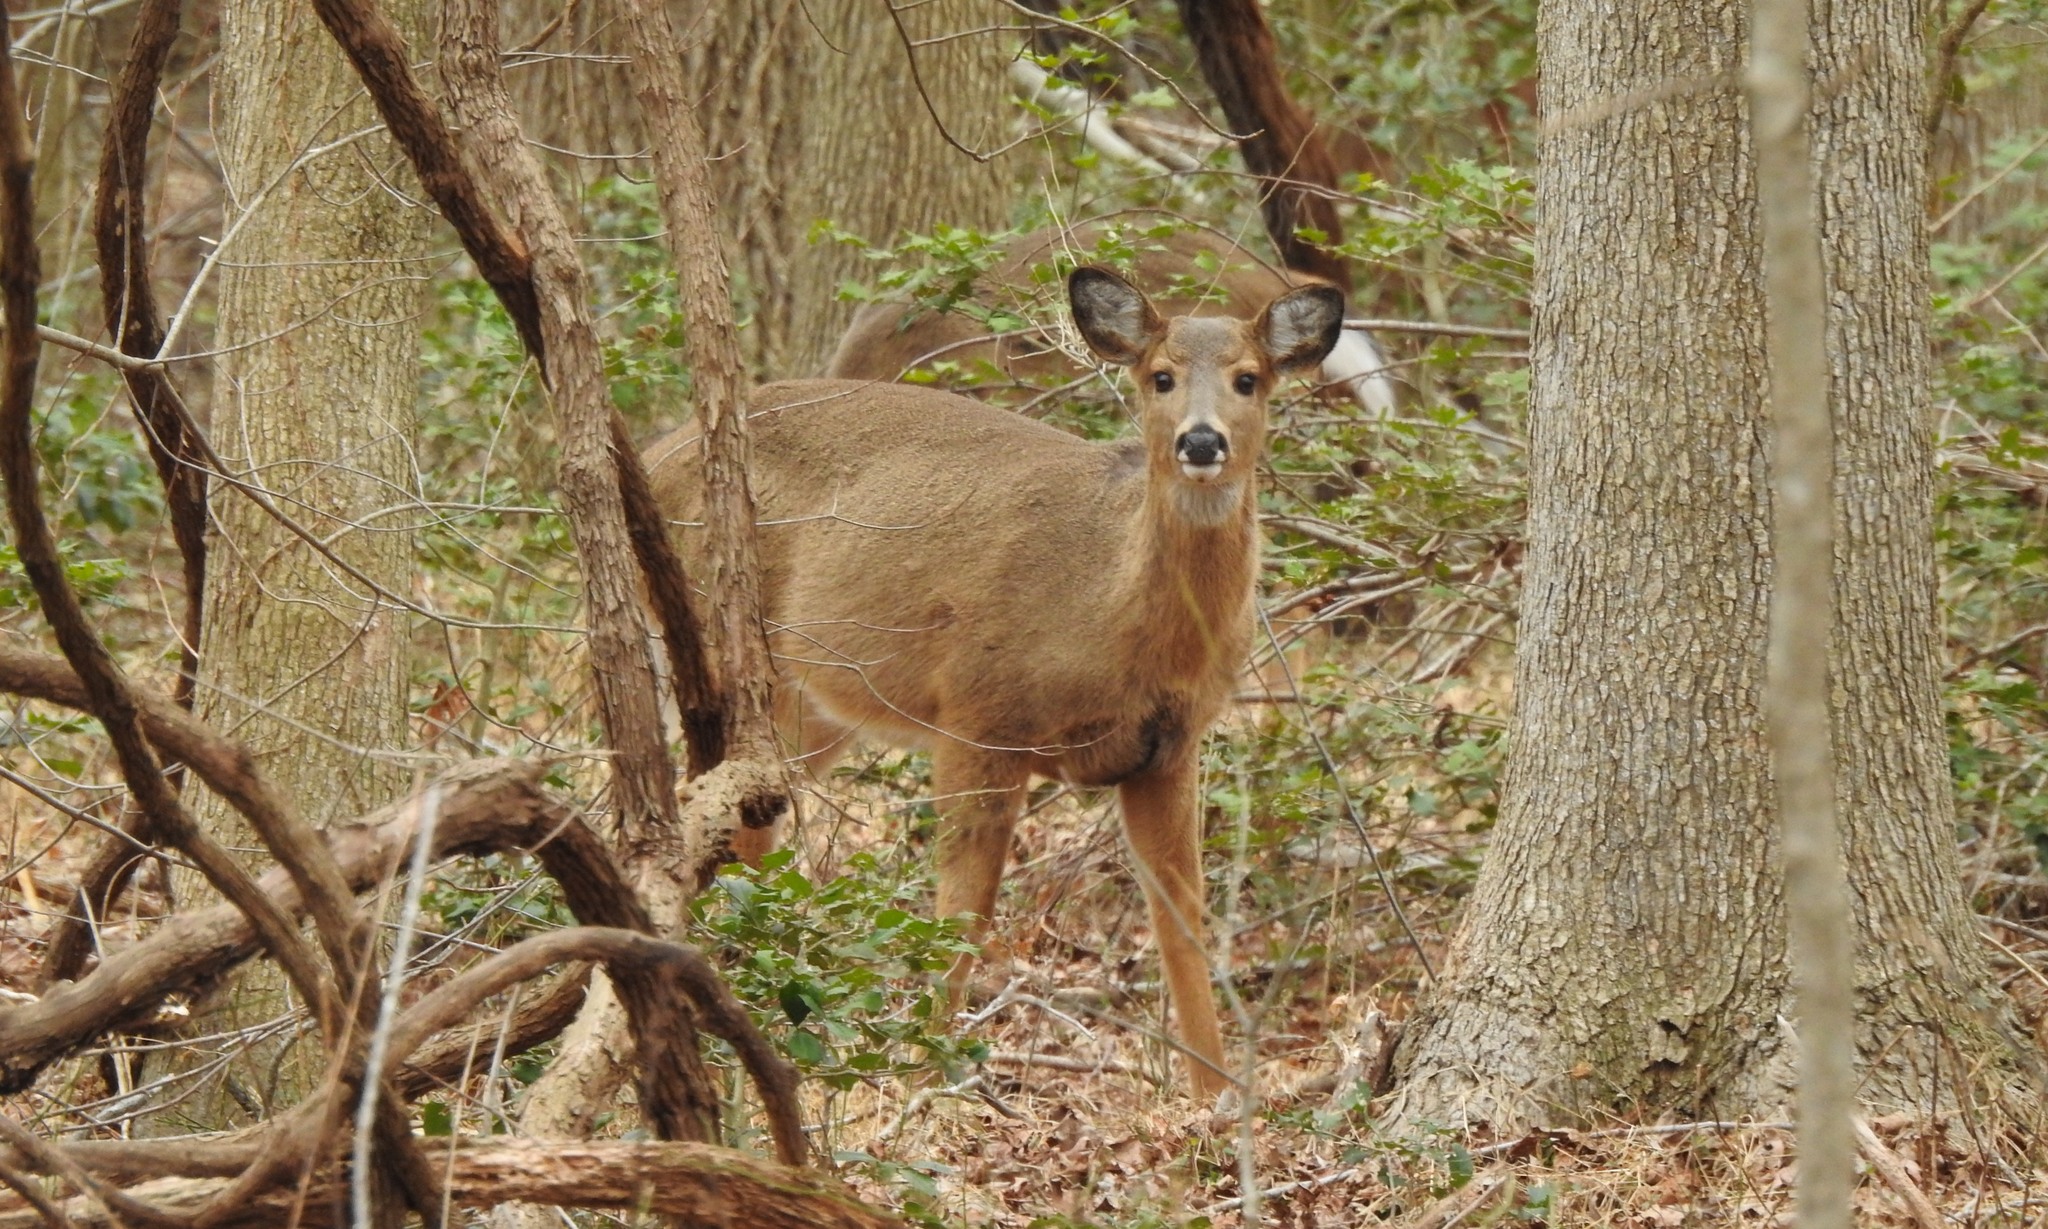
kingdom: Animalia
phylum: Chordata
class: Mammalia
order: Artiodactyla
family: Cervidae
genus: Odocoileus
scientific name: Odocoileus virginianus
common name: White-tailed deer
